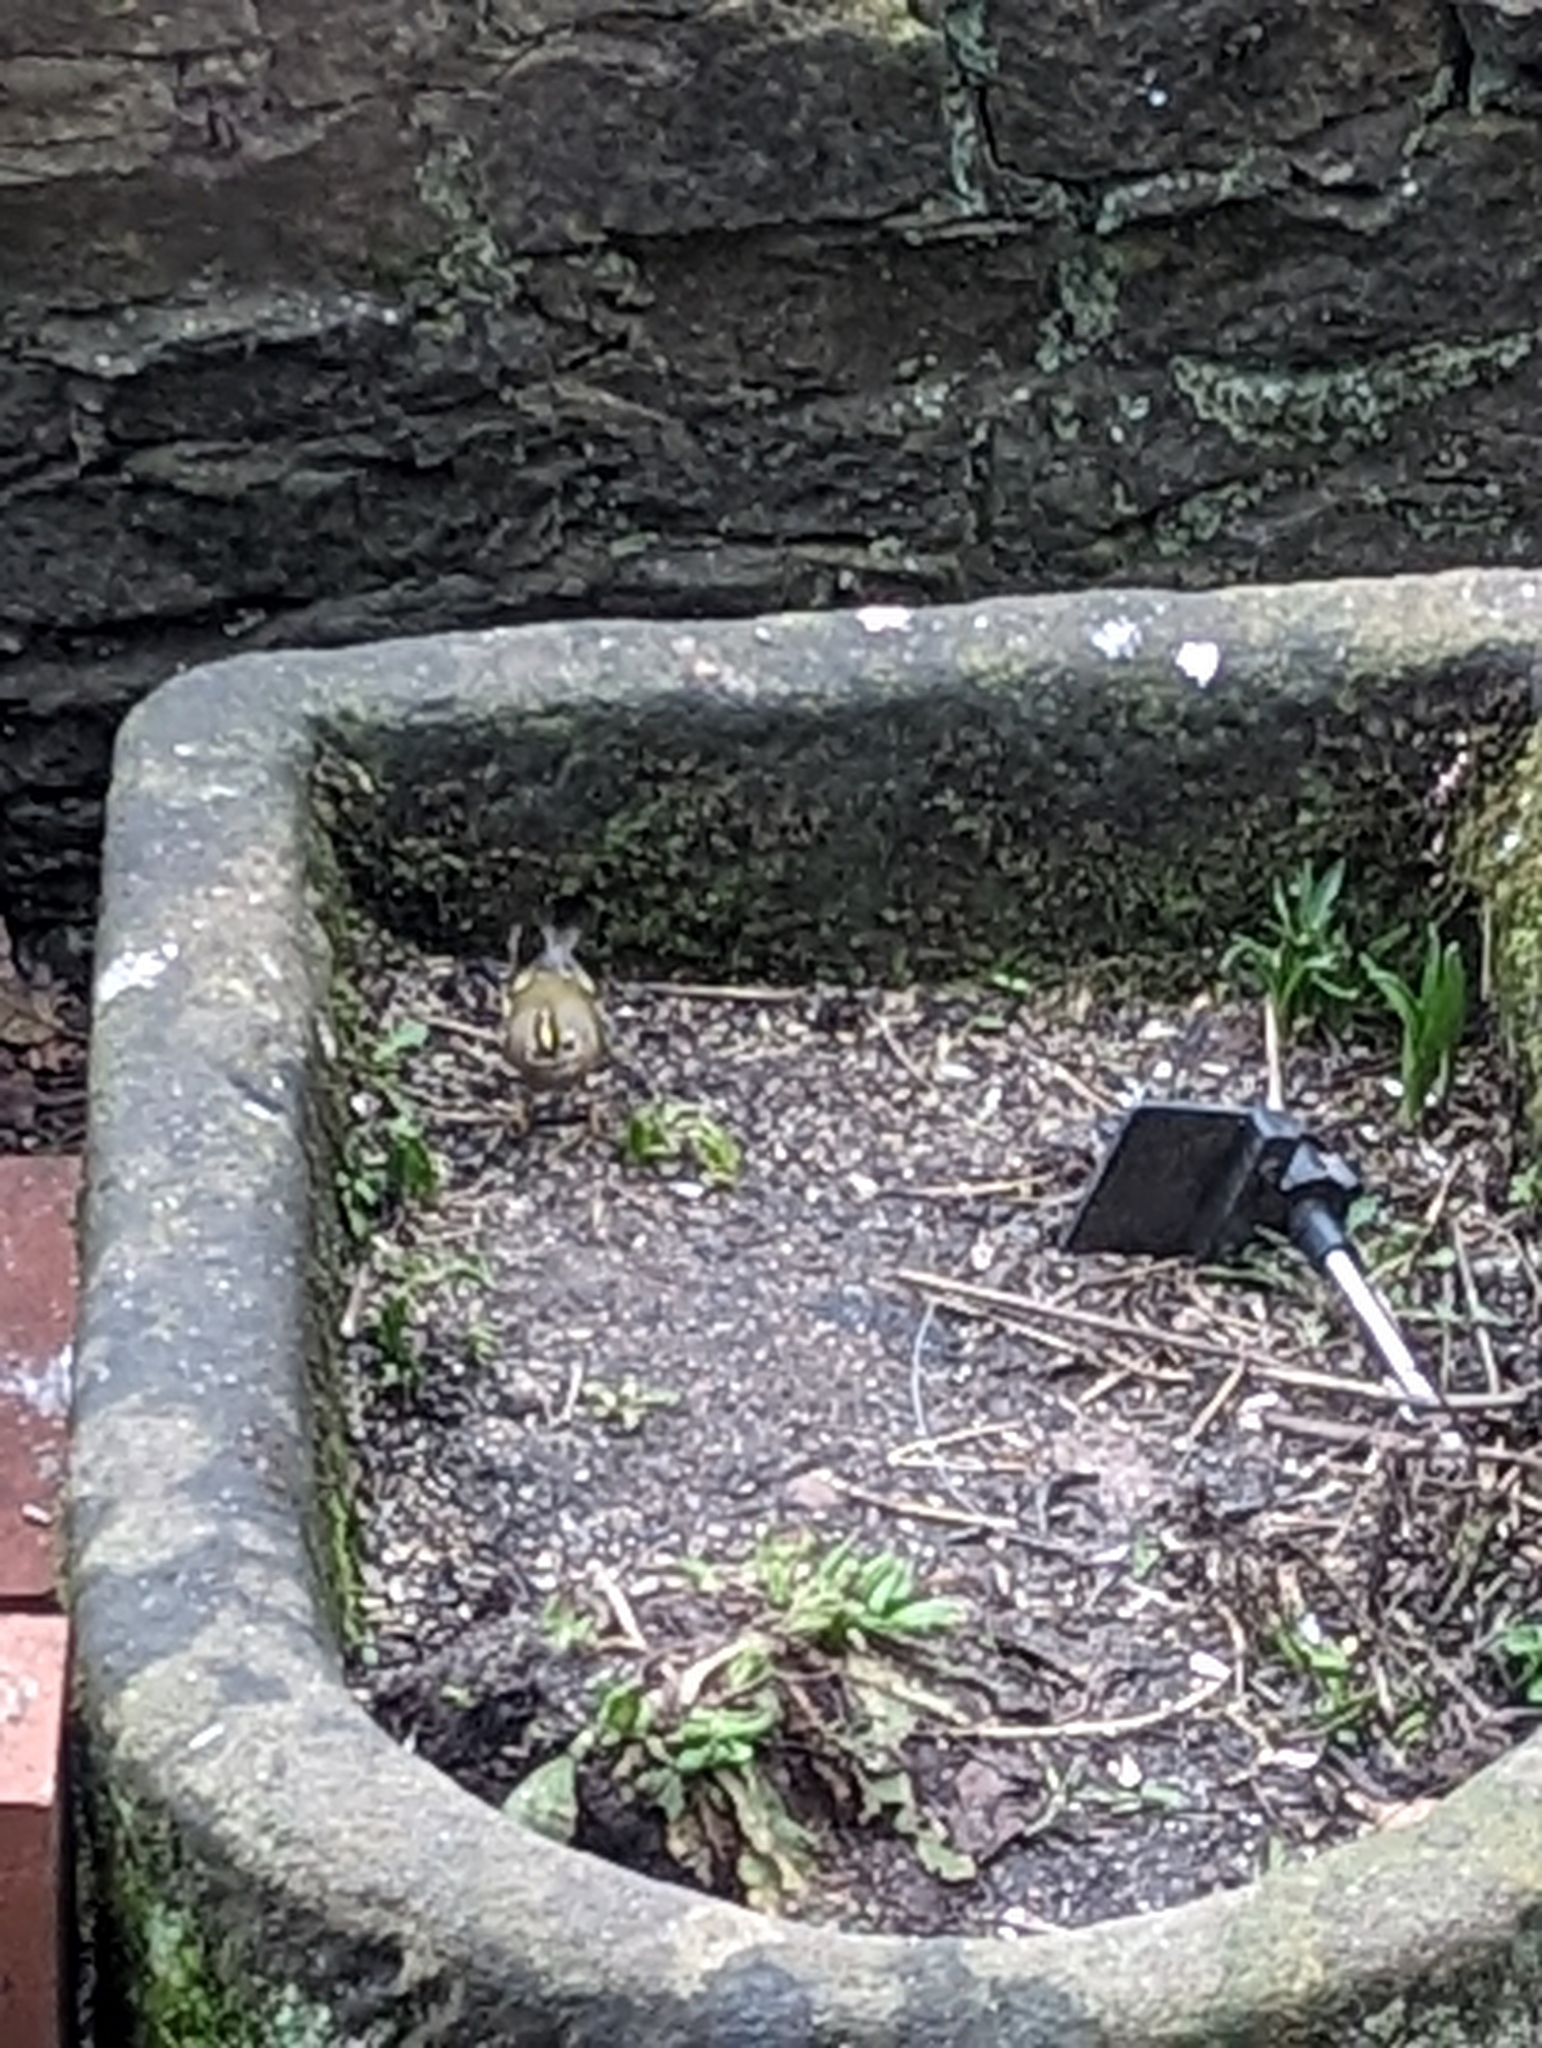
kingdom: Animalia
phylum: Chordata
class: Aves
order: Passeriformes
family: Regulidae
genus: Regulus
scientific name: Regulus regulus
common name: Goldcrest
